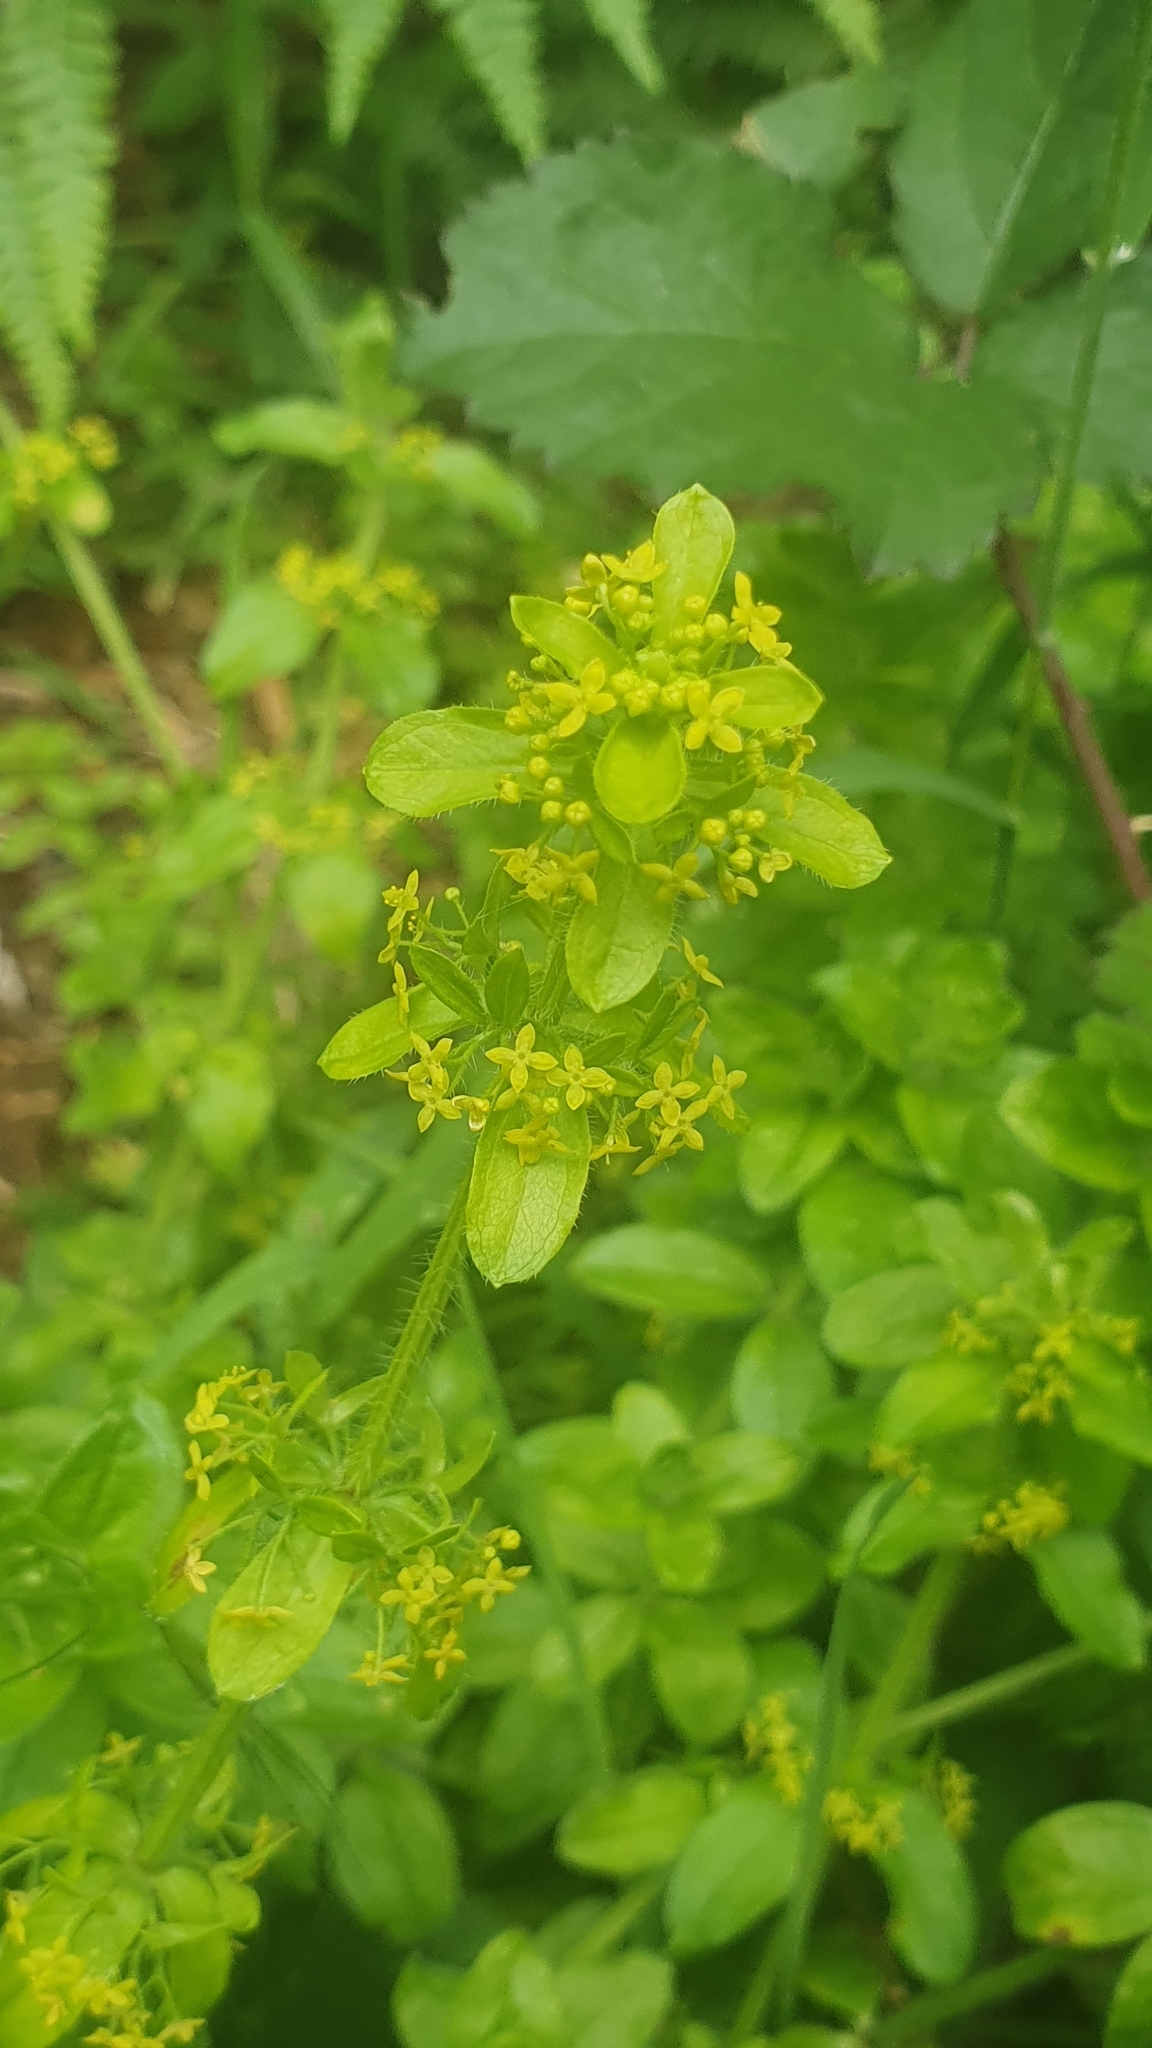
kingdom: Plantae
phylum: Tracheophyta
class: Magnoliopsida
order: Gentianales
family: Rubiaceae
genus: Cruciata
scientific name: Cruciata laevipes
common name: Crosswort
